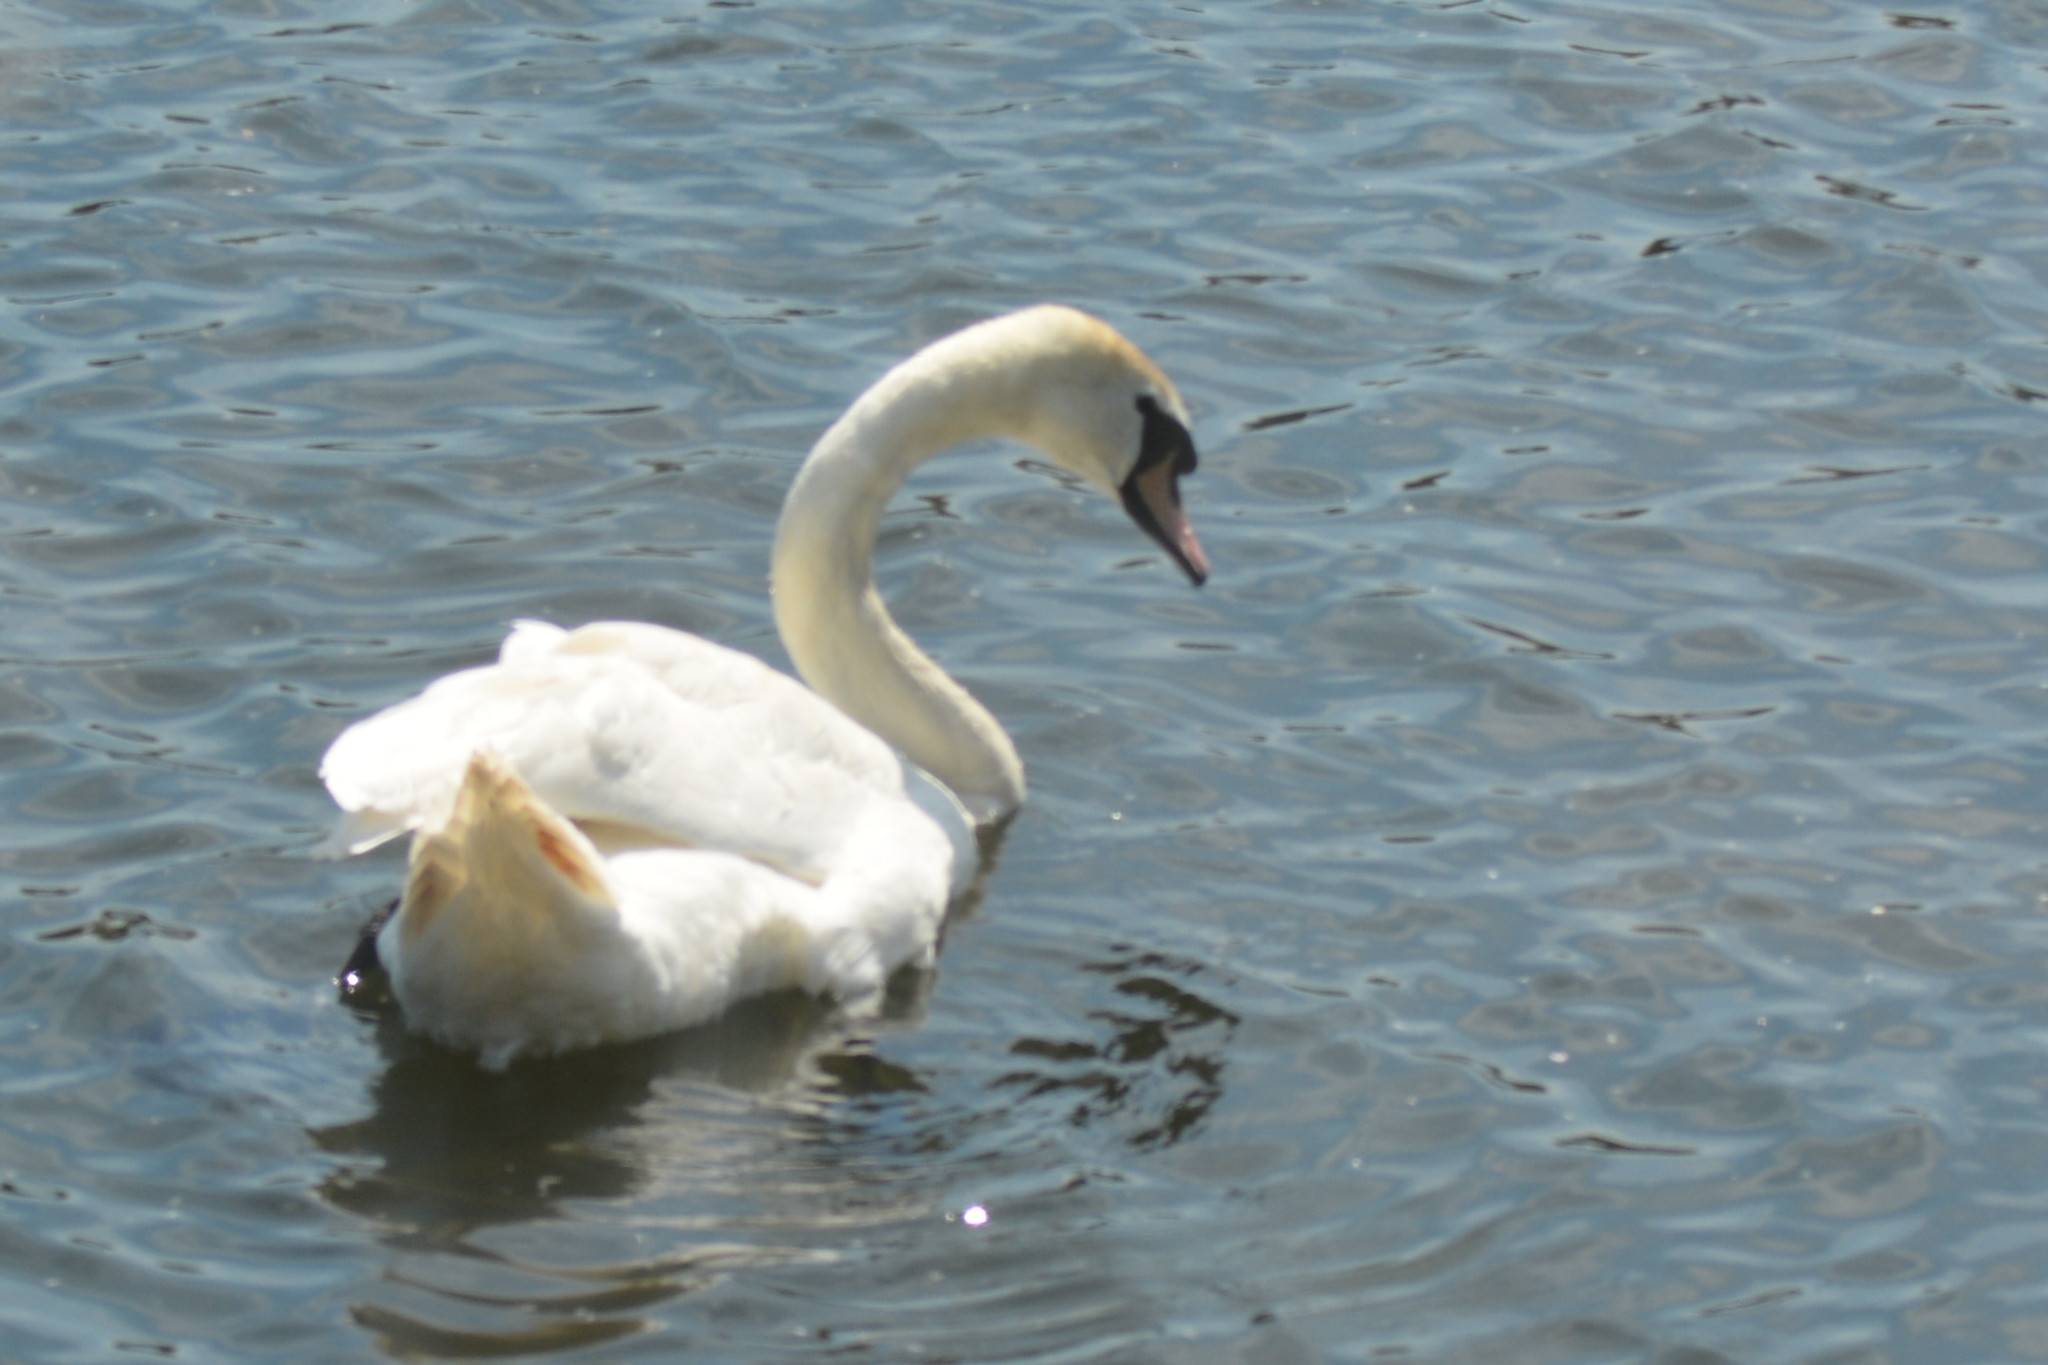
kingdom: Animalia
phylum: Chordata
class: Aves
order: Anseriformes
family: Anatidae
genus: Cygnus
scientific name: Cygnus olor
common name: Mute swan
